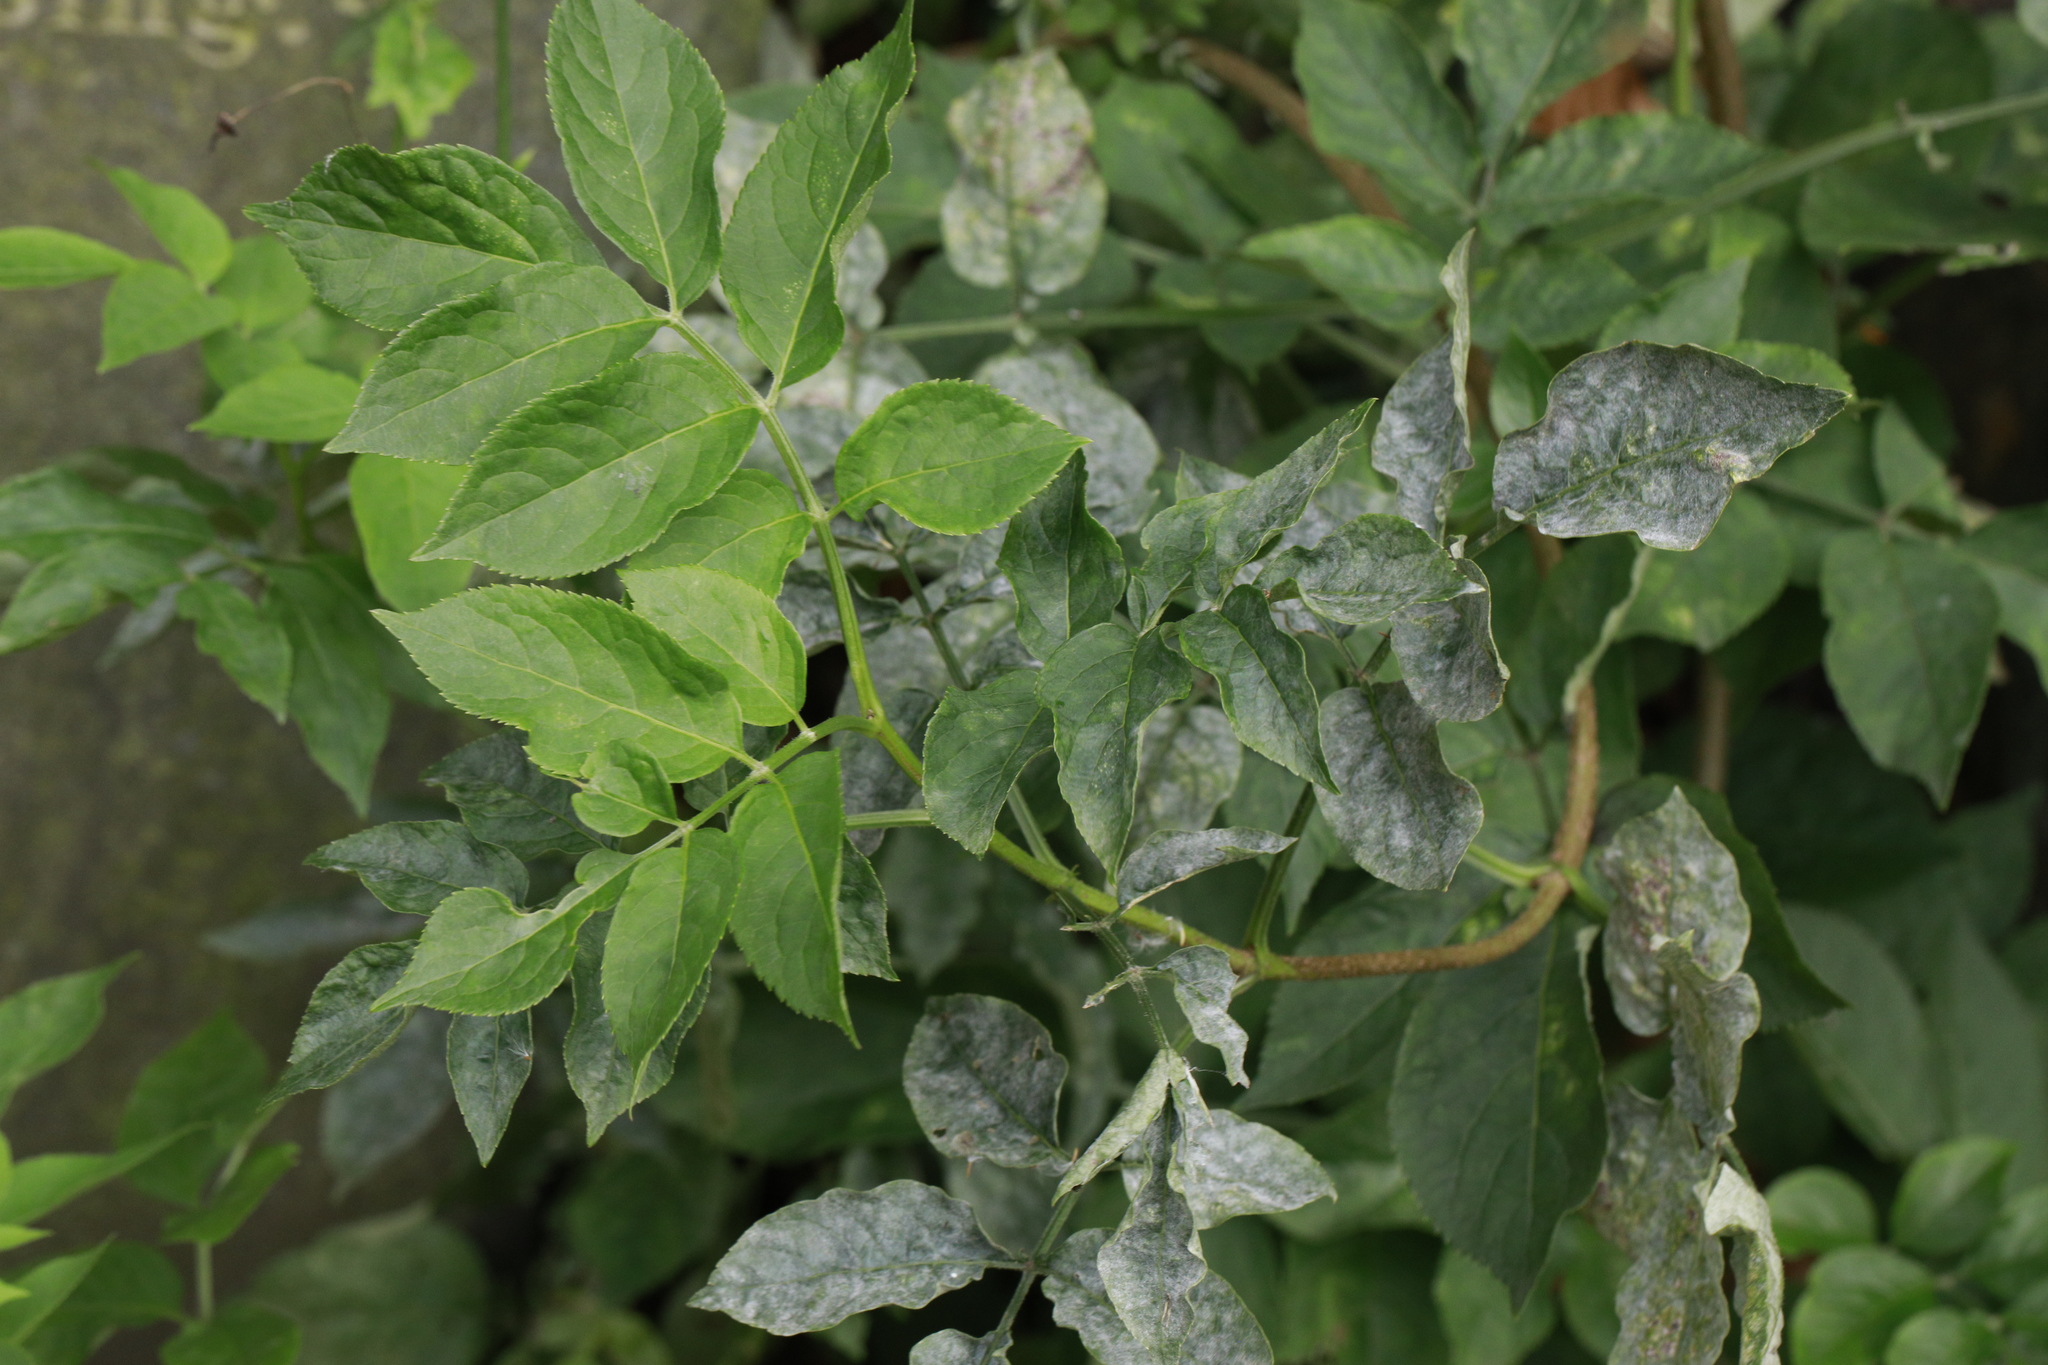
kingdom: Fungi
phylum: Ascomycota
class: Leotiomycetes
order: Helotiales
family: Erysiphaceae
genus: Erysiphe
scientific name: Erysiphe sambuci
